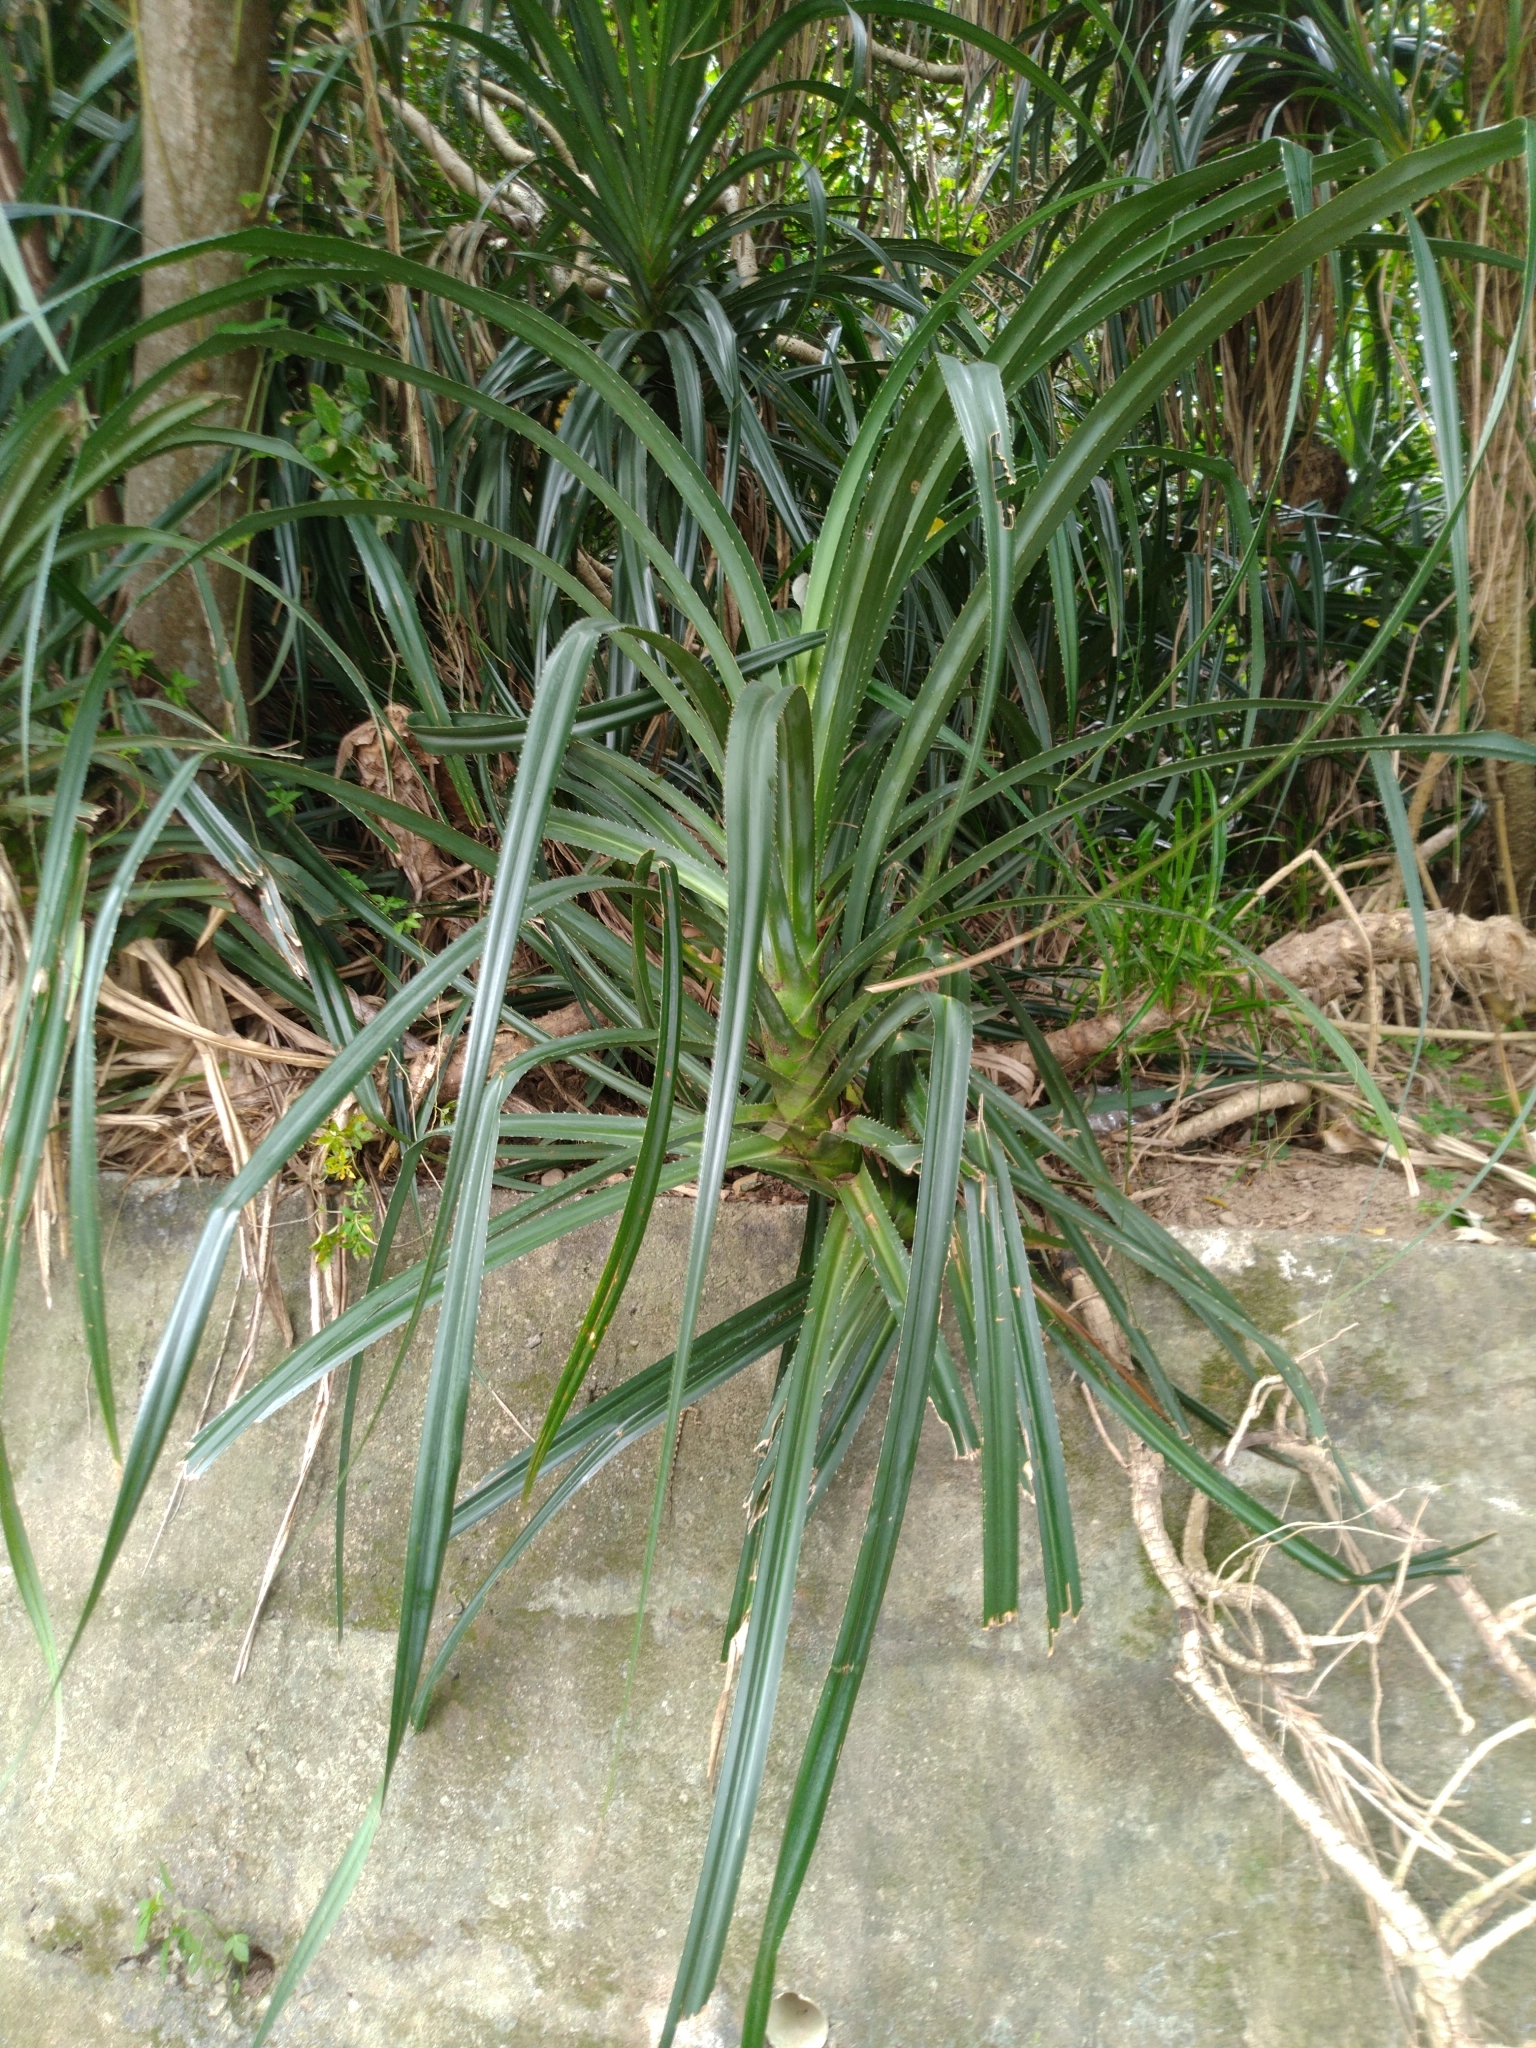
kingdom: Plantae
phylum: Tracheophyta
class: Liliopsida
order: Pandanales
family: Pandanaceae
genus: Pandanus
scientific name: Pandanus odorifer
